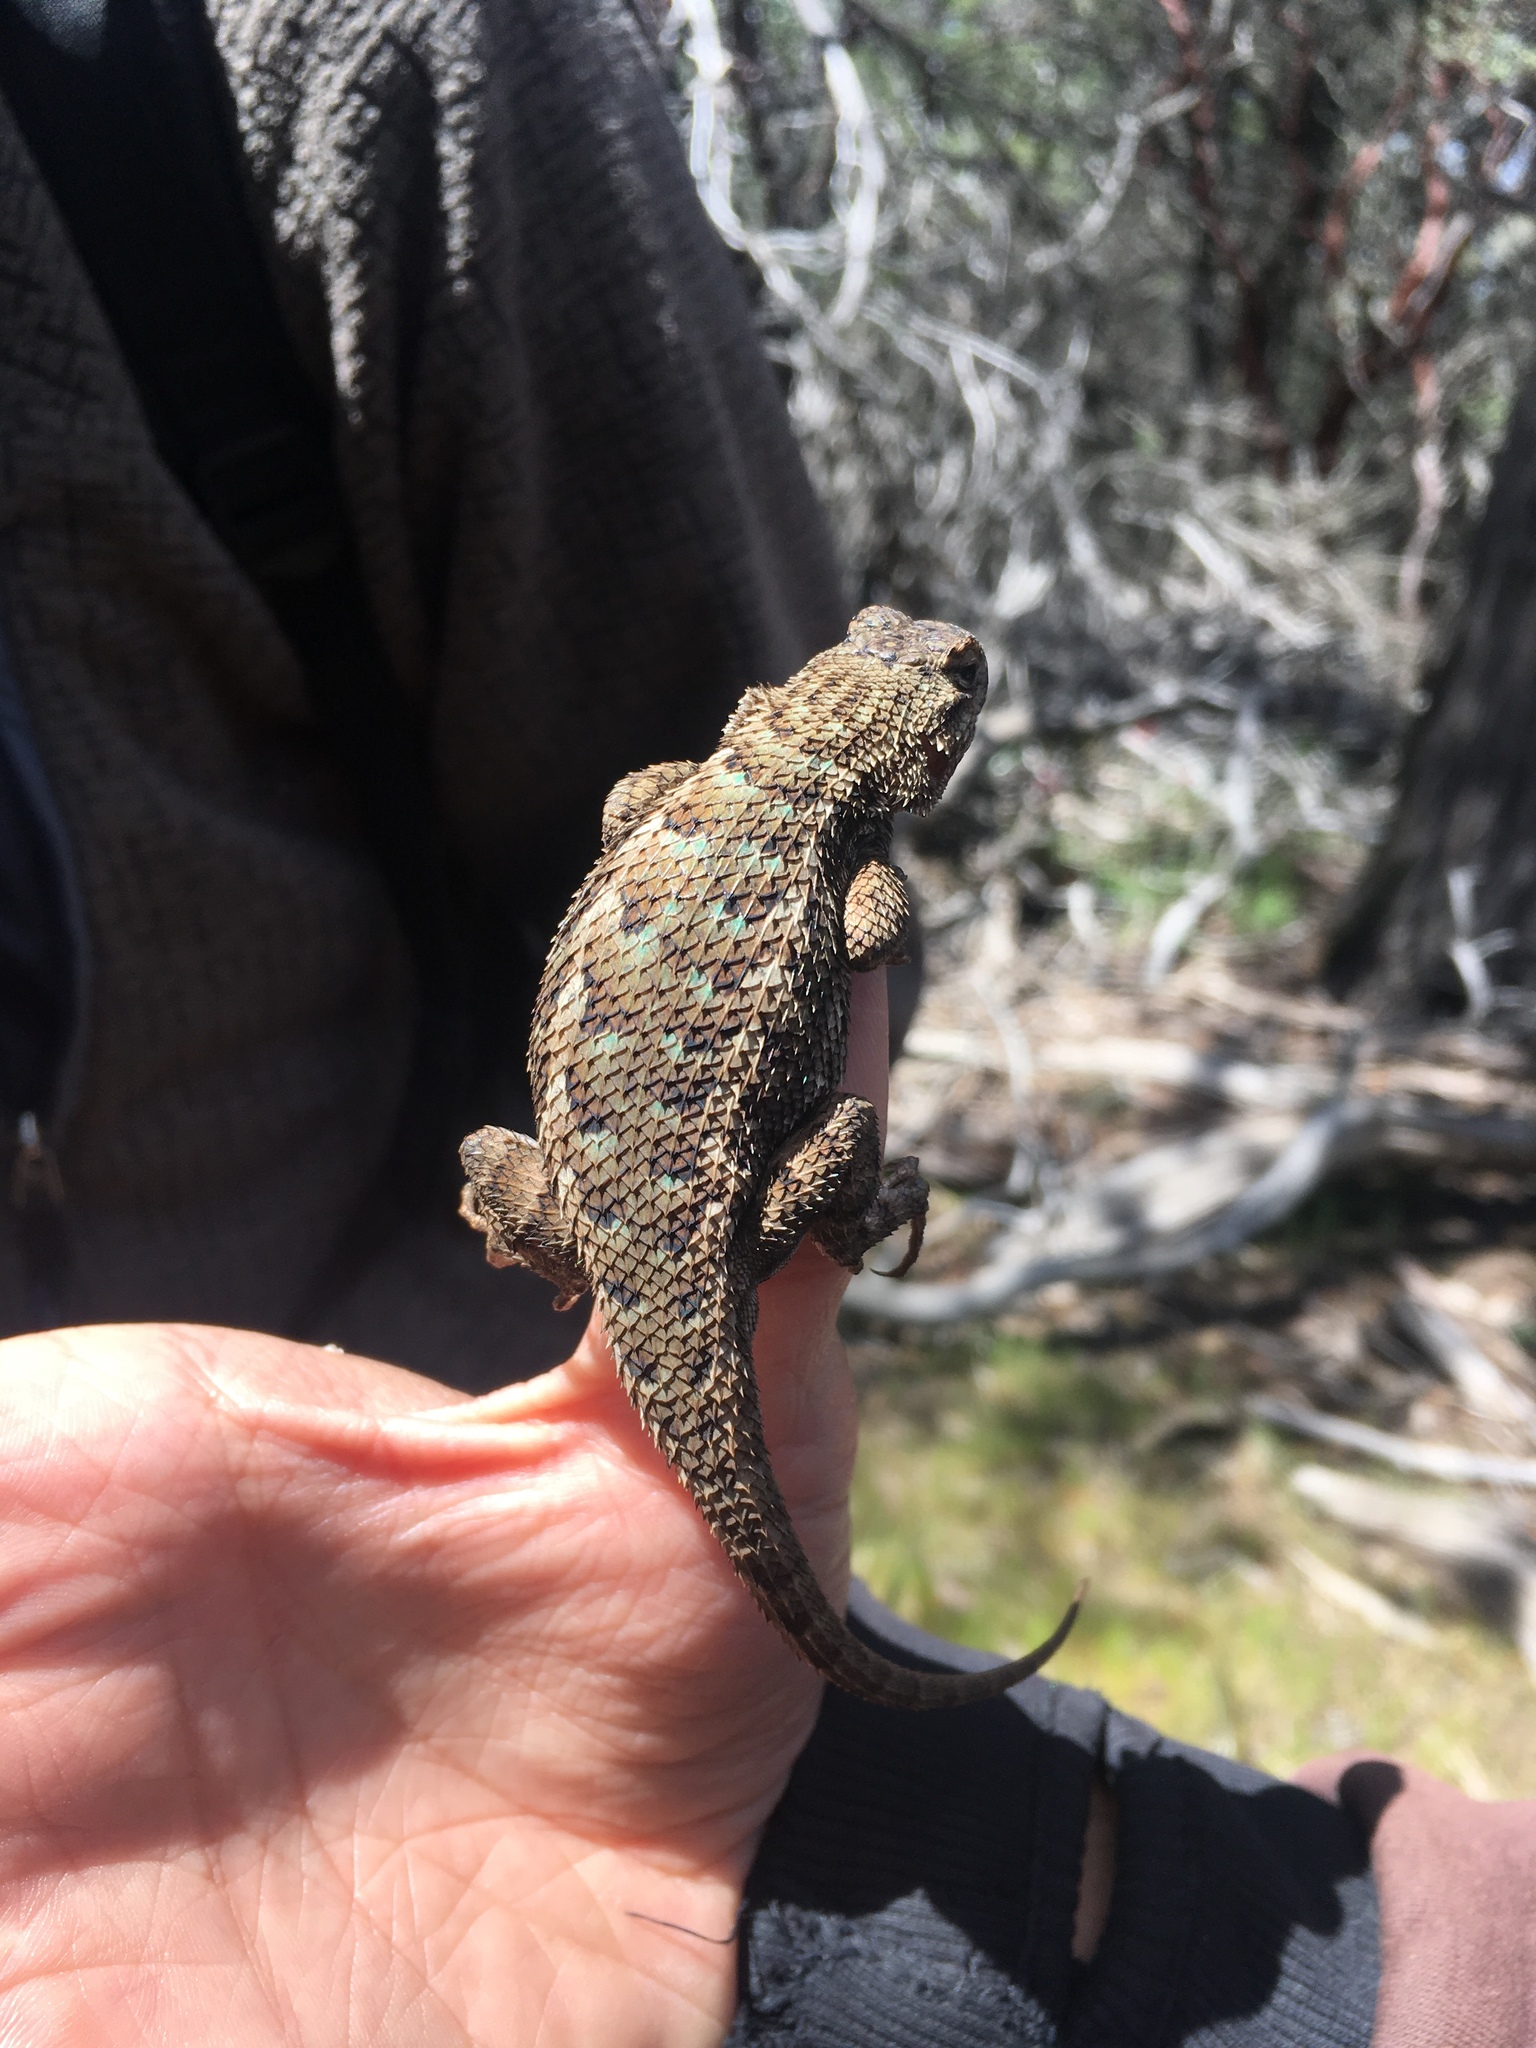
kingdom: Animalia
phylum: Chordata
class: Squamata
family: Phrynosomatidae
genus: Sceloporus
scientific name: Sceloporus occidentalis
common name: Western fence lizard
